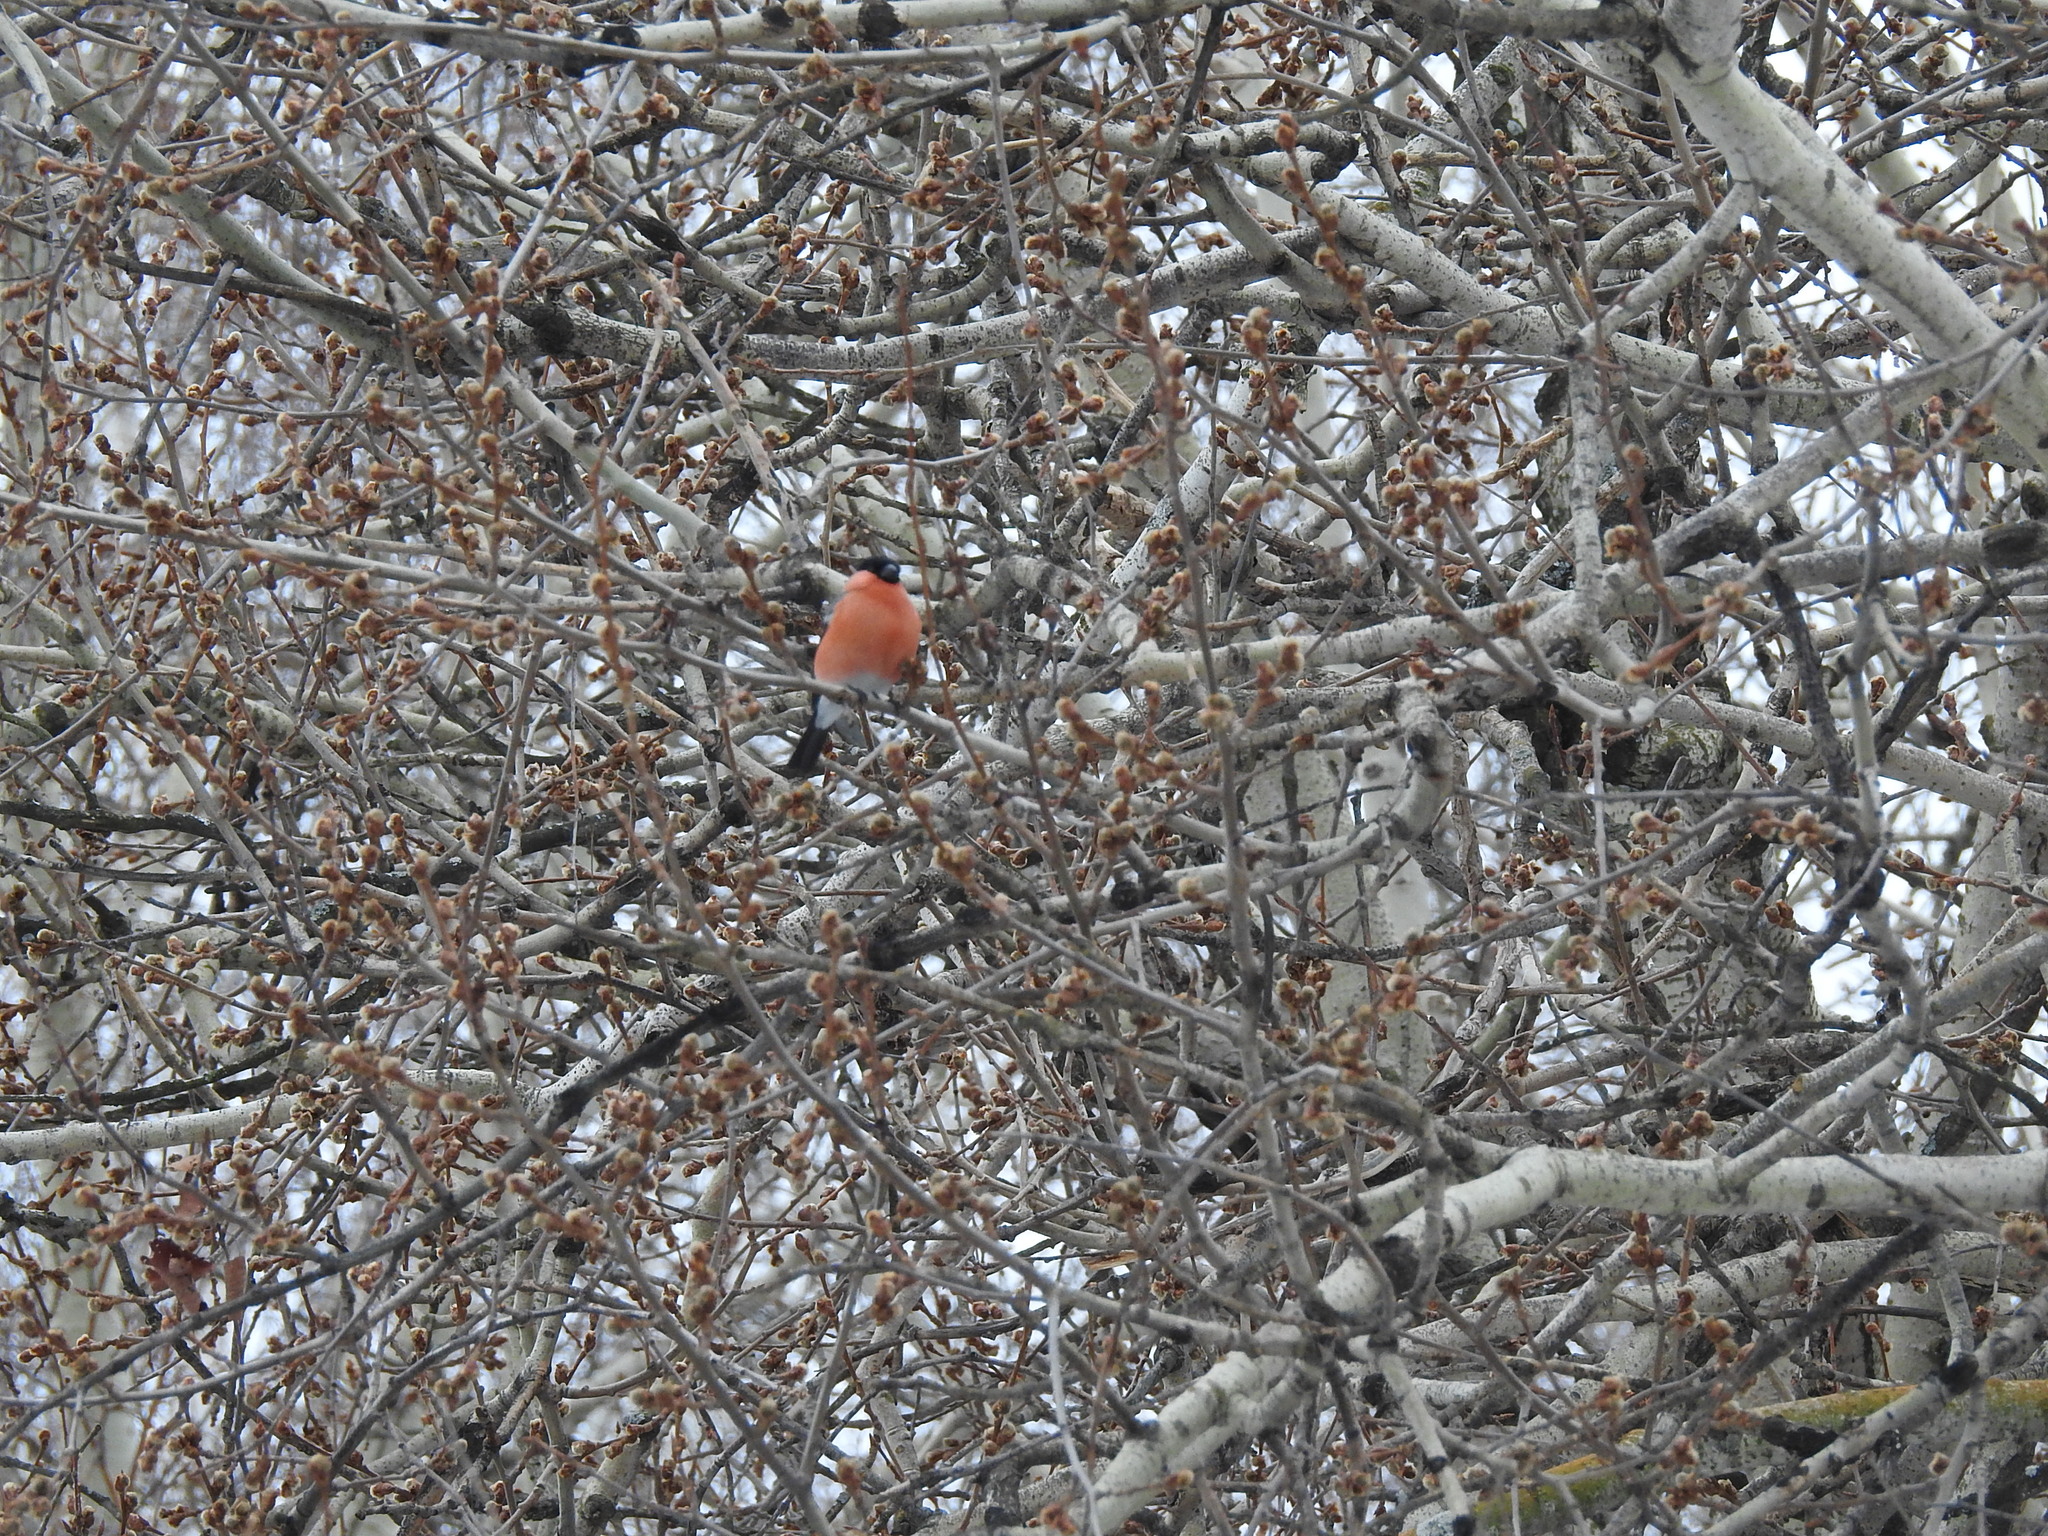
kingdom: Animalia
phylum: Chordata
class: Aves
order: Passeriformes
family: Fringillidae
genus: Pyrrhula
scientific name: Pyrrhula pyrrhula
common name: Eurasian bullfinch
